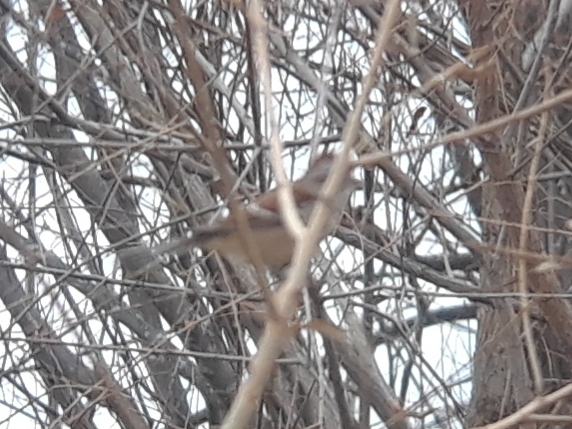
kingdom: Animalia
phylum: Chordata
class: Aves
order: Passeriformes
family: Passerellidae
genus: Spizelloides
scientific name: Spizelloides arborea
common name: American tree sparrow
